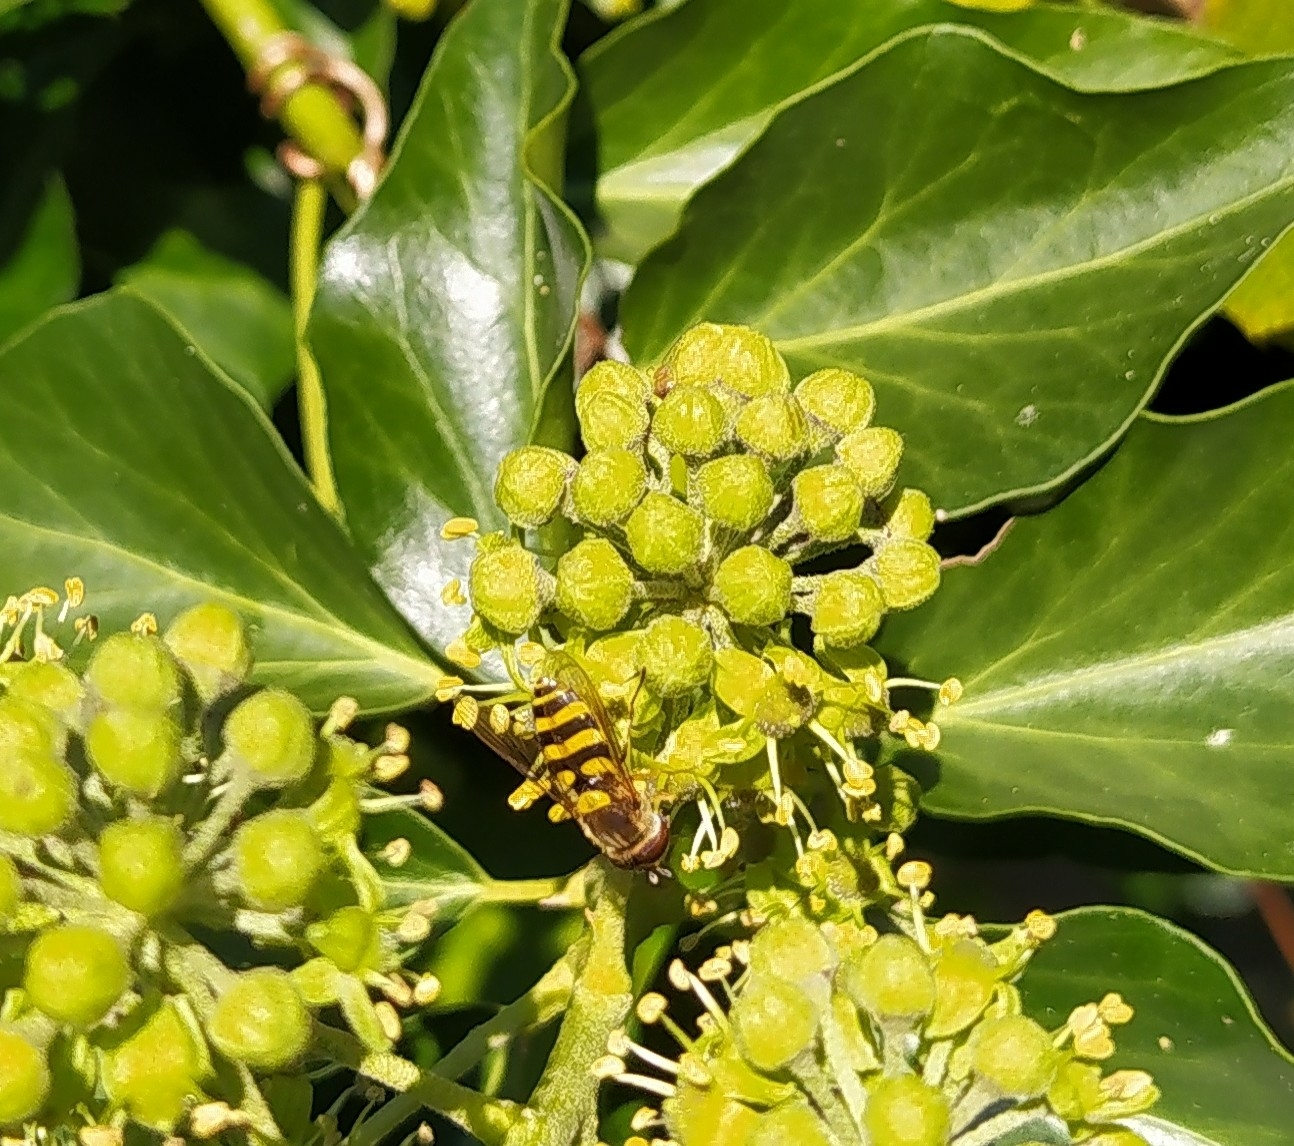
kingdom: Animalia
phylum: Arthropoda
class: Insecta
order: Diptera
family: Syrphidae
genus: Syrphus
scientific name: Syrphus
